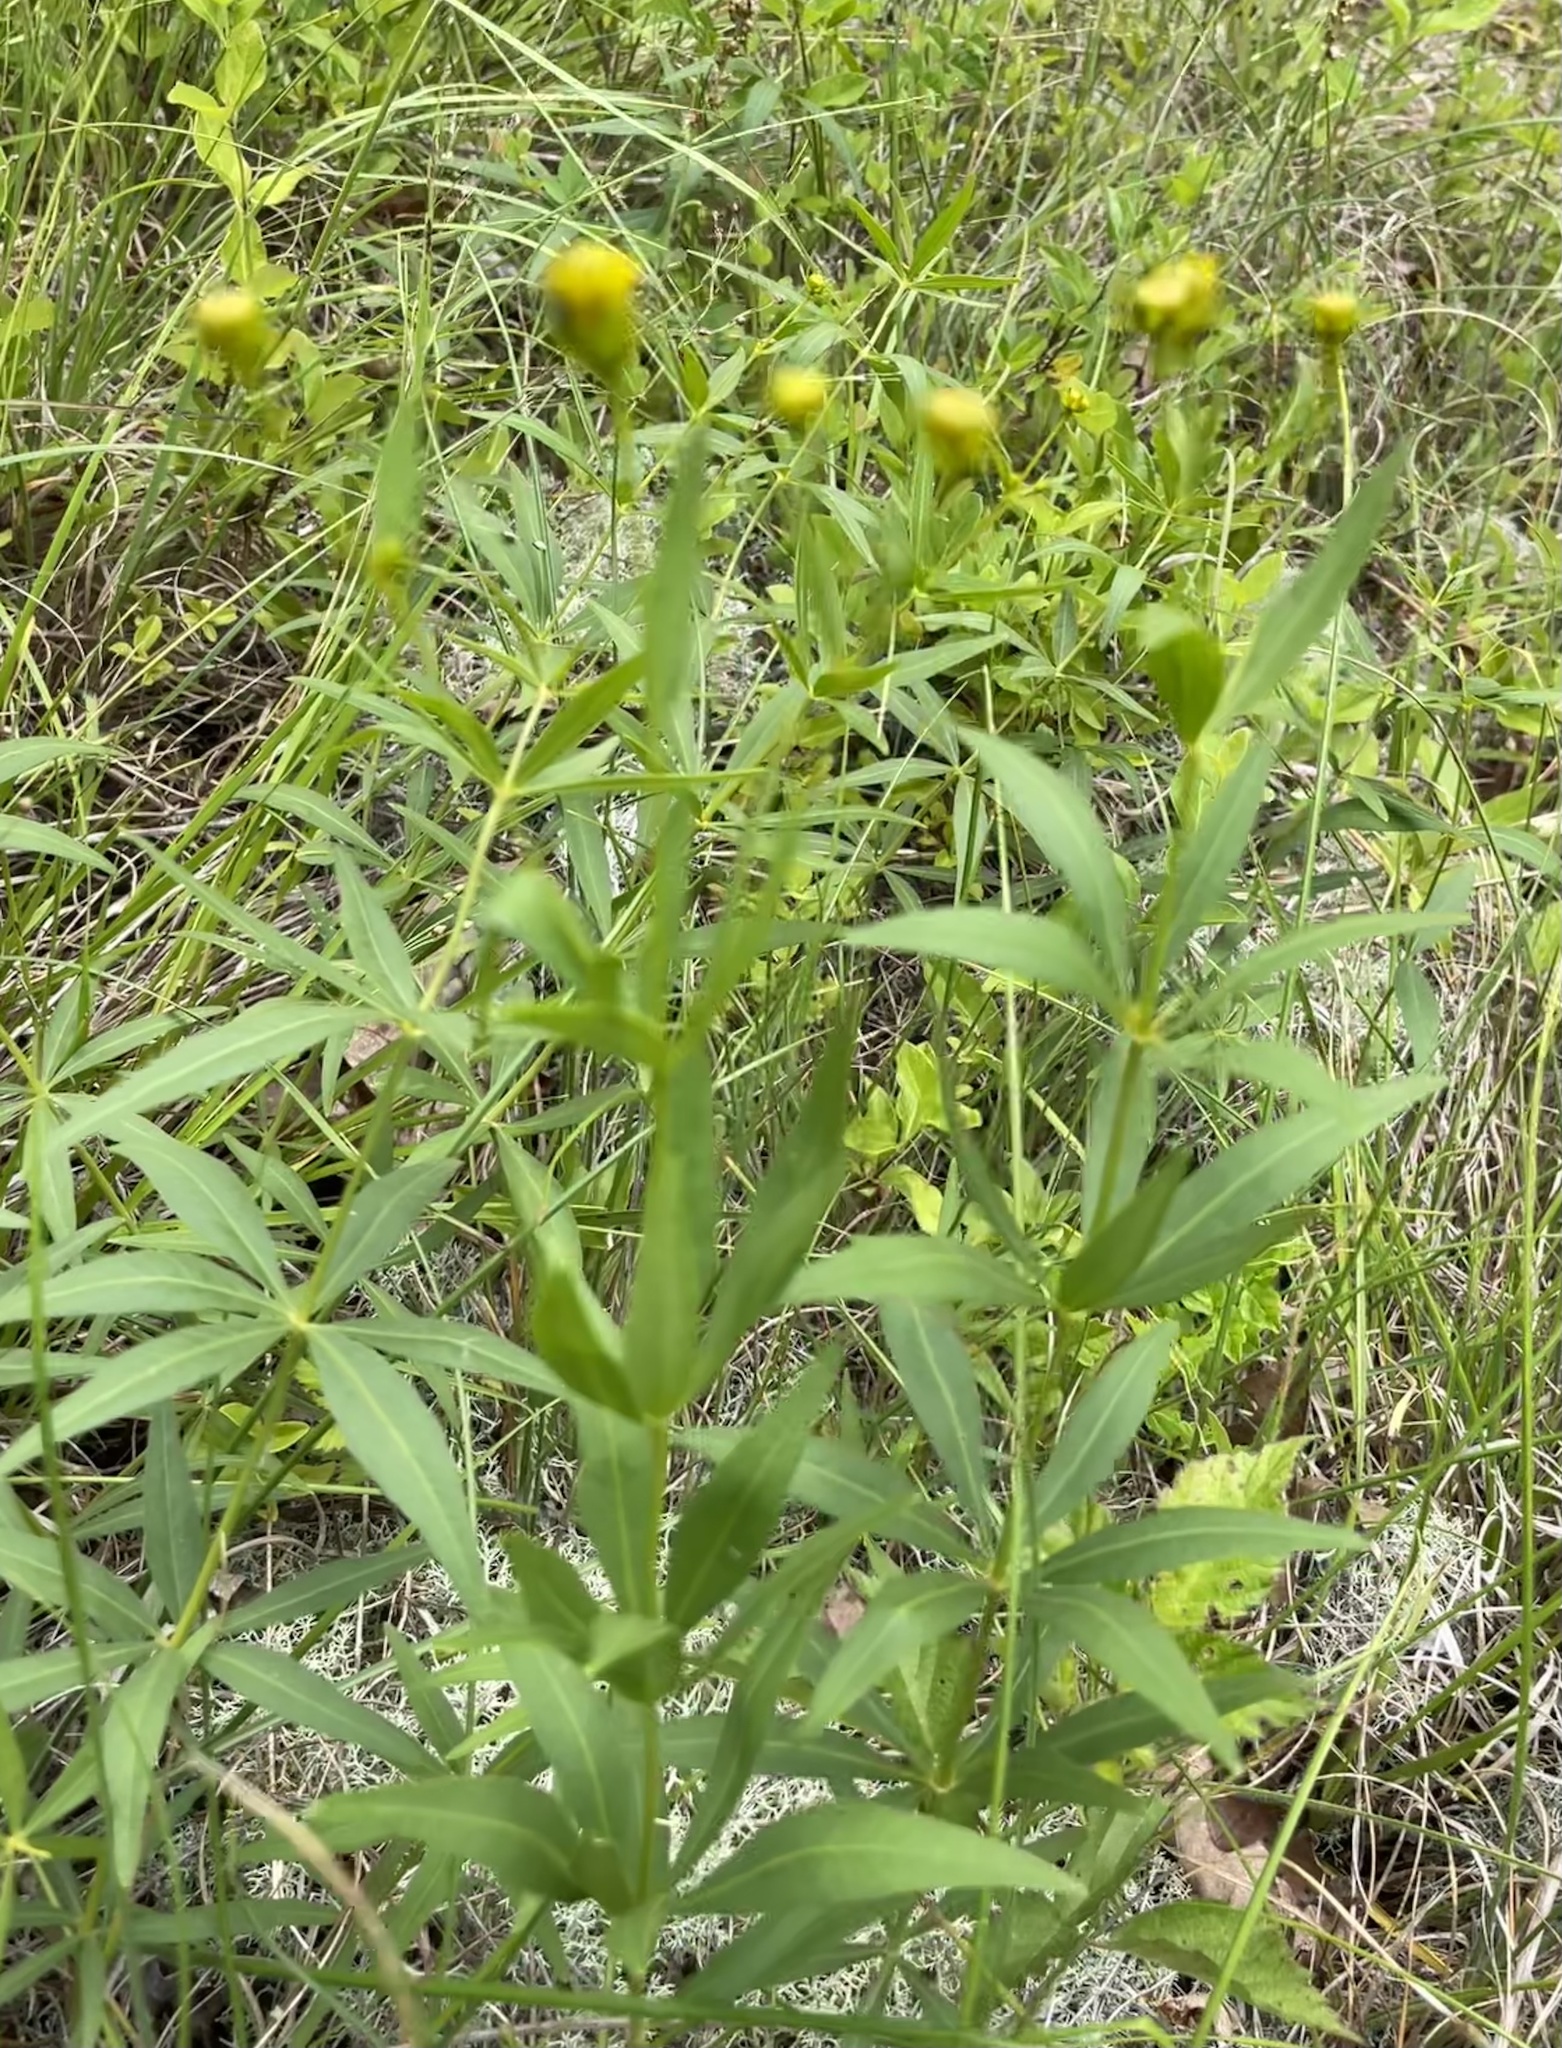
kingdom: Plantae
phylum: Tracheophyta
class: Magnoliopsida
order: Asterales
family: Asteraceae
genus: Coreopsis
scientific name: Coreopsis major
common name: Forest tickseed
